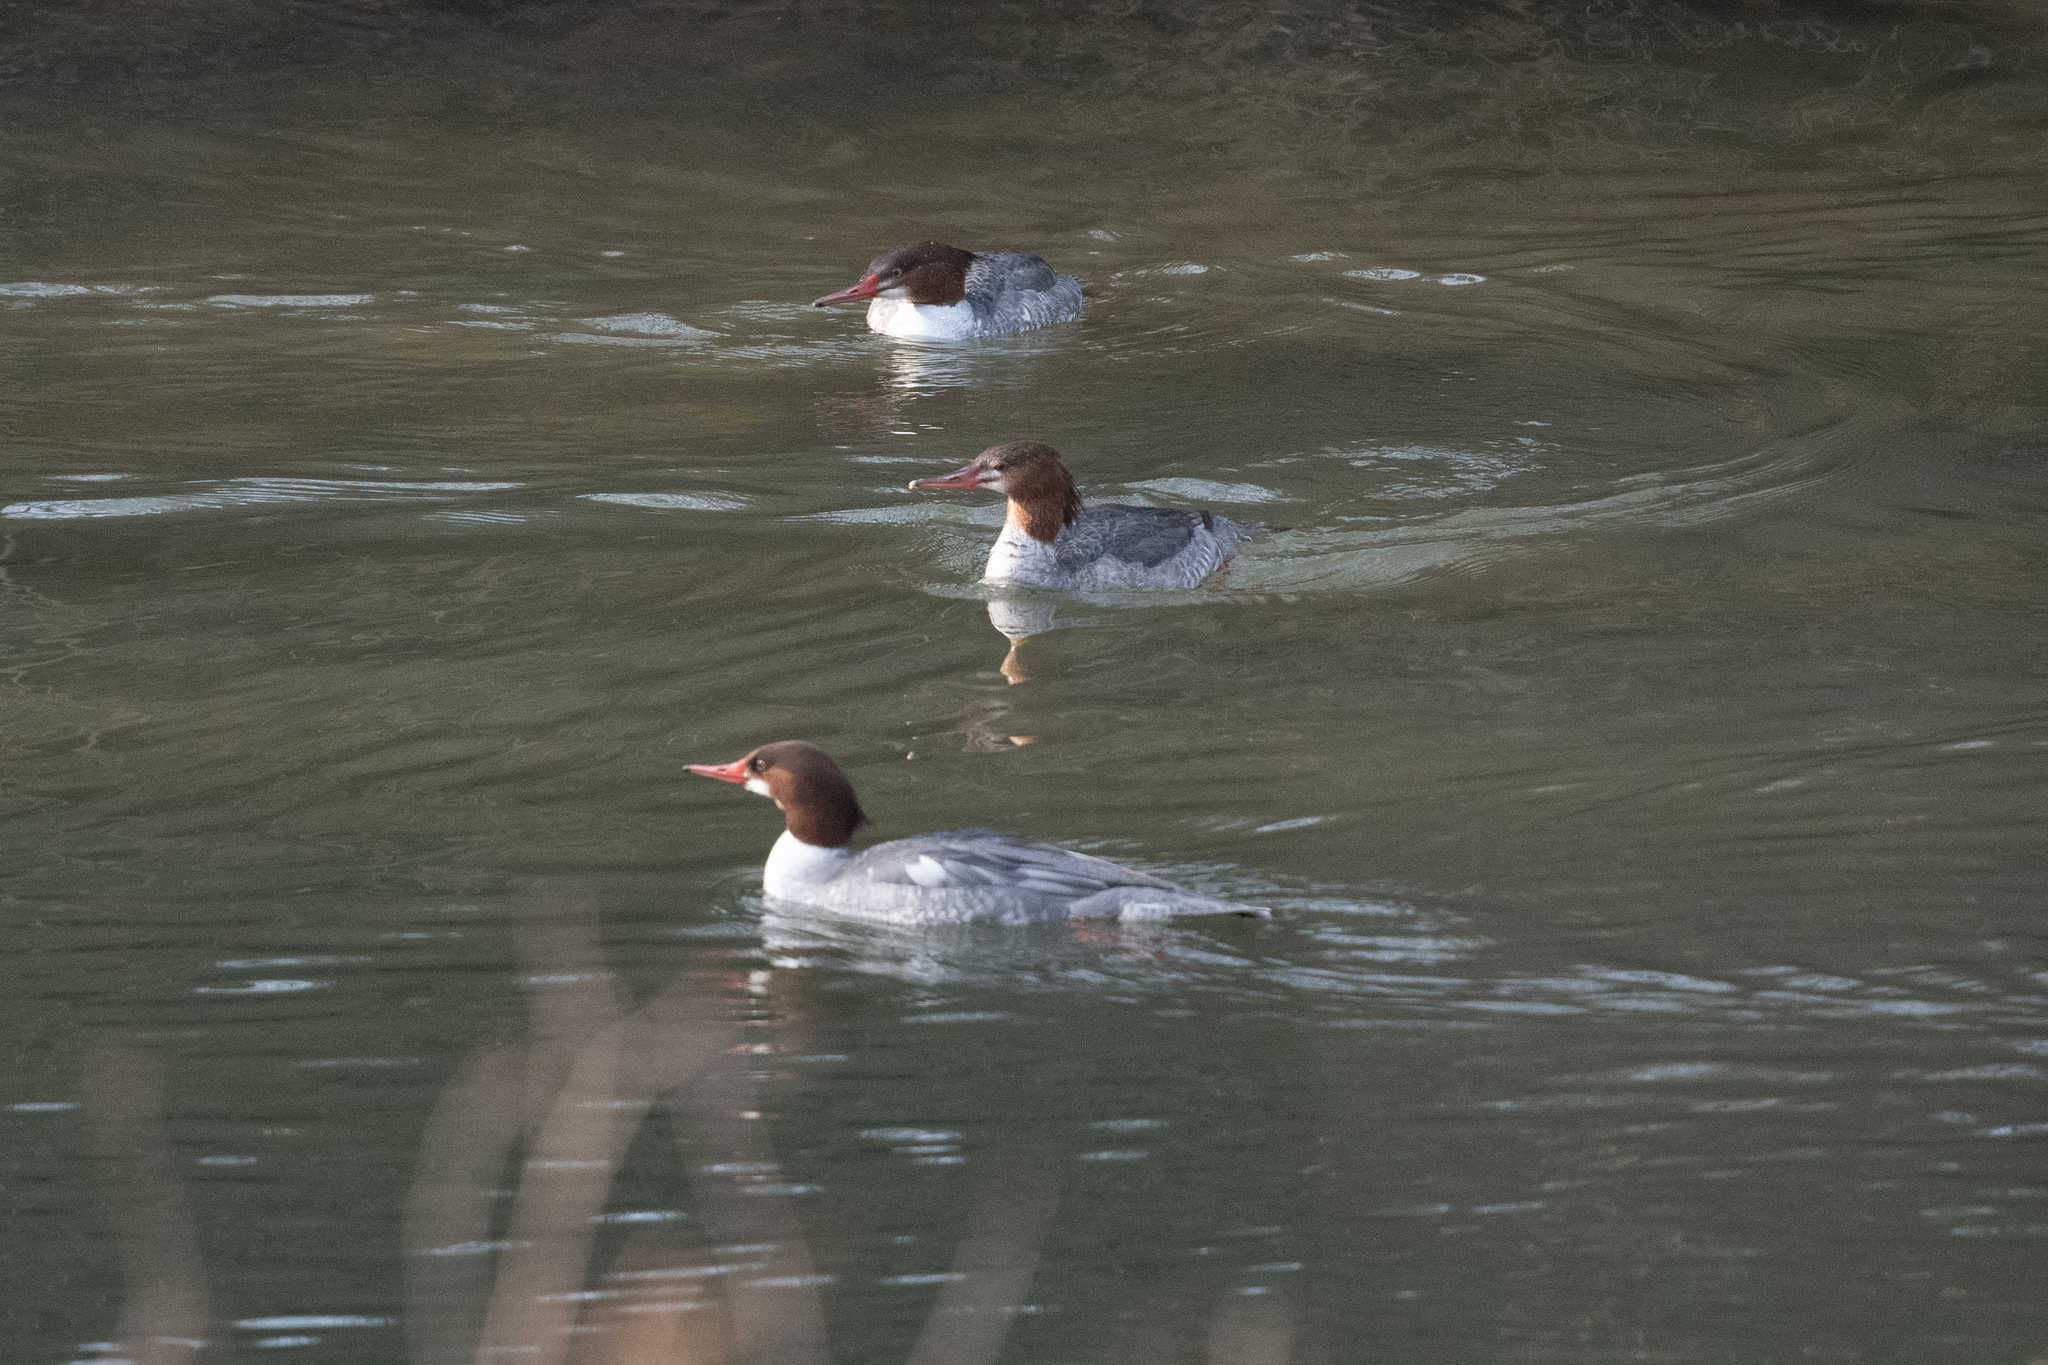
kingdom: Animalia
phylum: Chordata
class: Aves
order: Anseriformes
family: Anatidae
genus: Mergus
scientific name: Mergus merganser
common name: Common merganser
